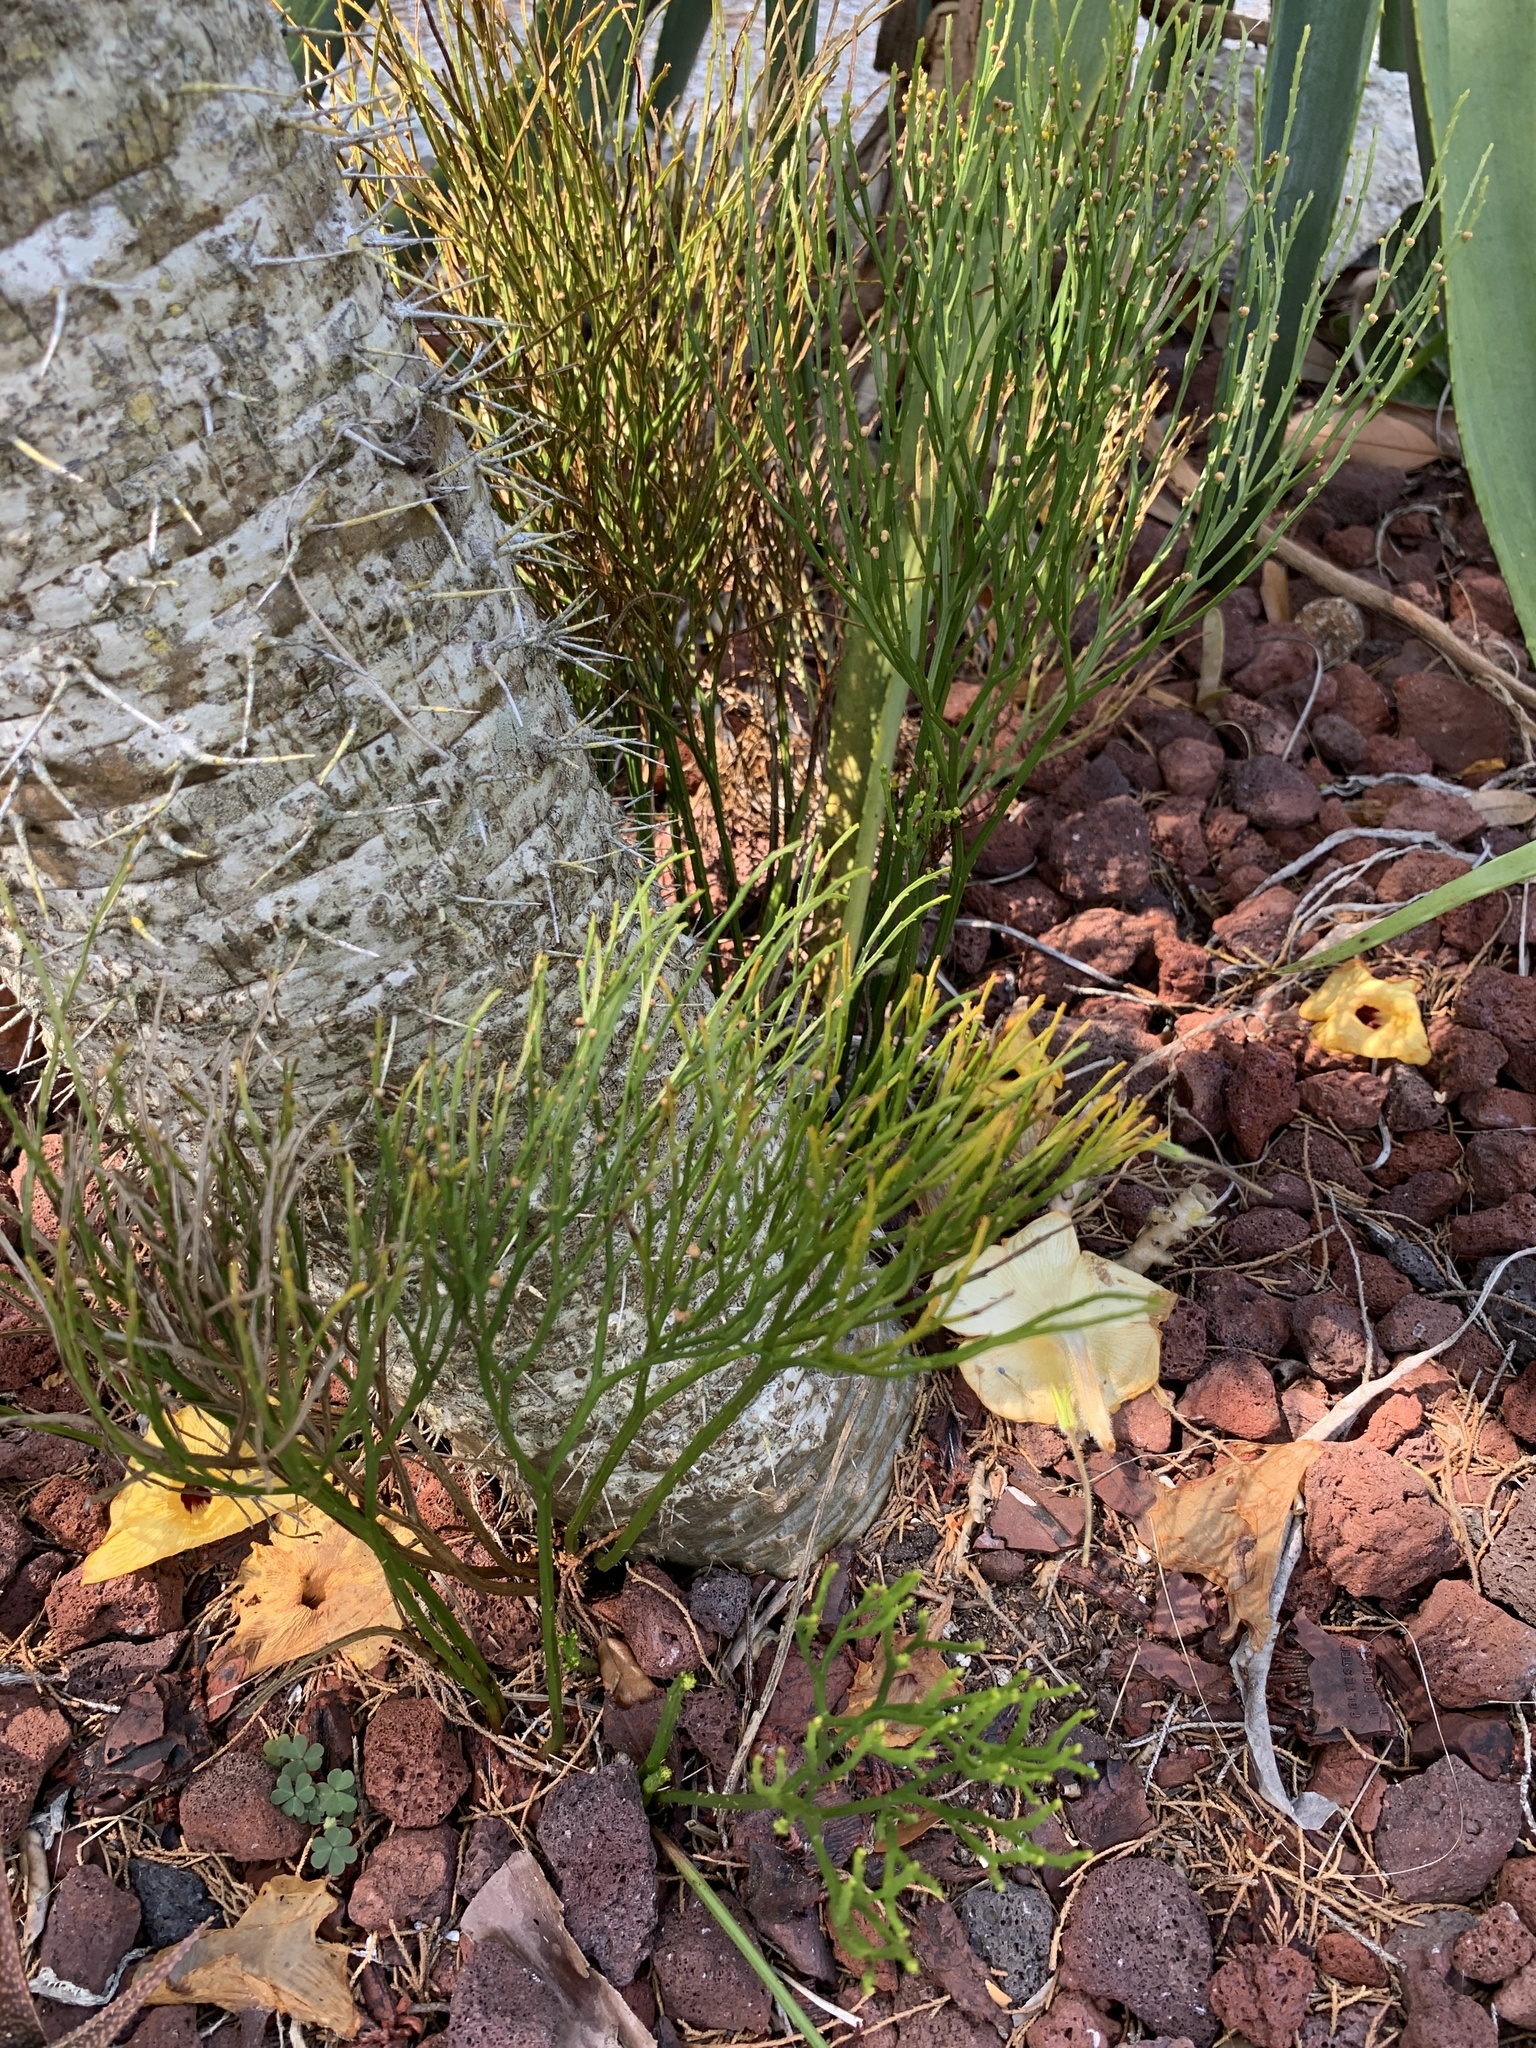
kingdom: Plantae
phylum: Tracheophyta
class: Polypodiopsida
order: Psilotales
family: Psilotaceae
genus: Psilotum
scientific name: Psilotum nudum
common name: Skeleton fork fern
